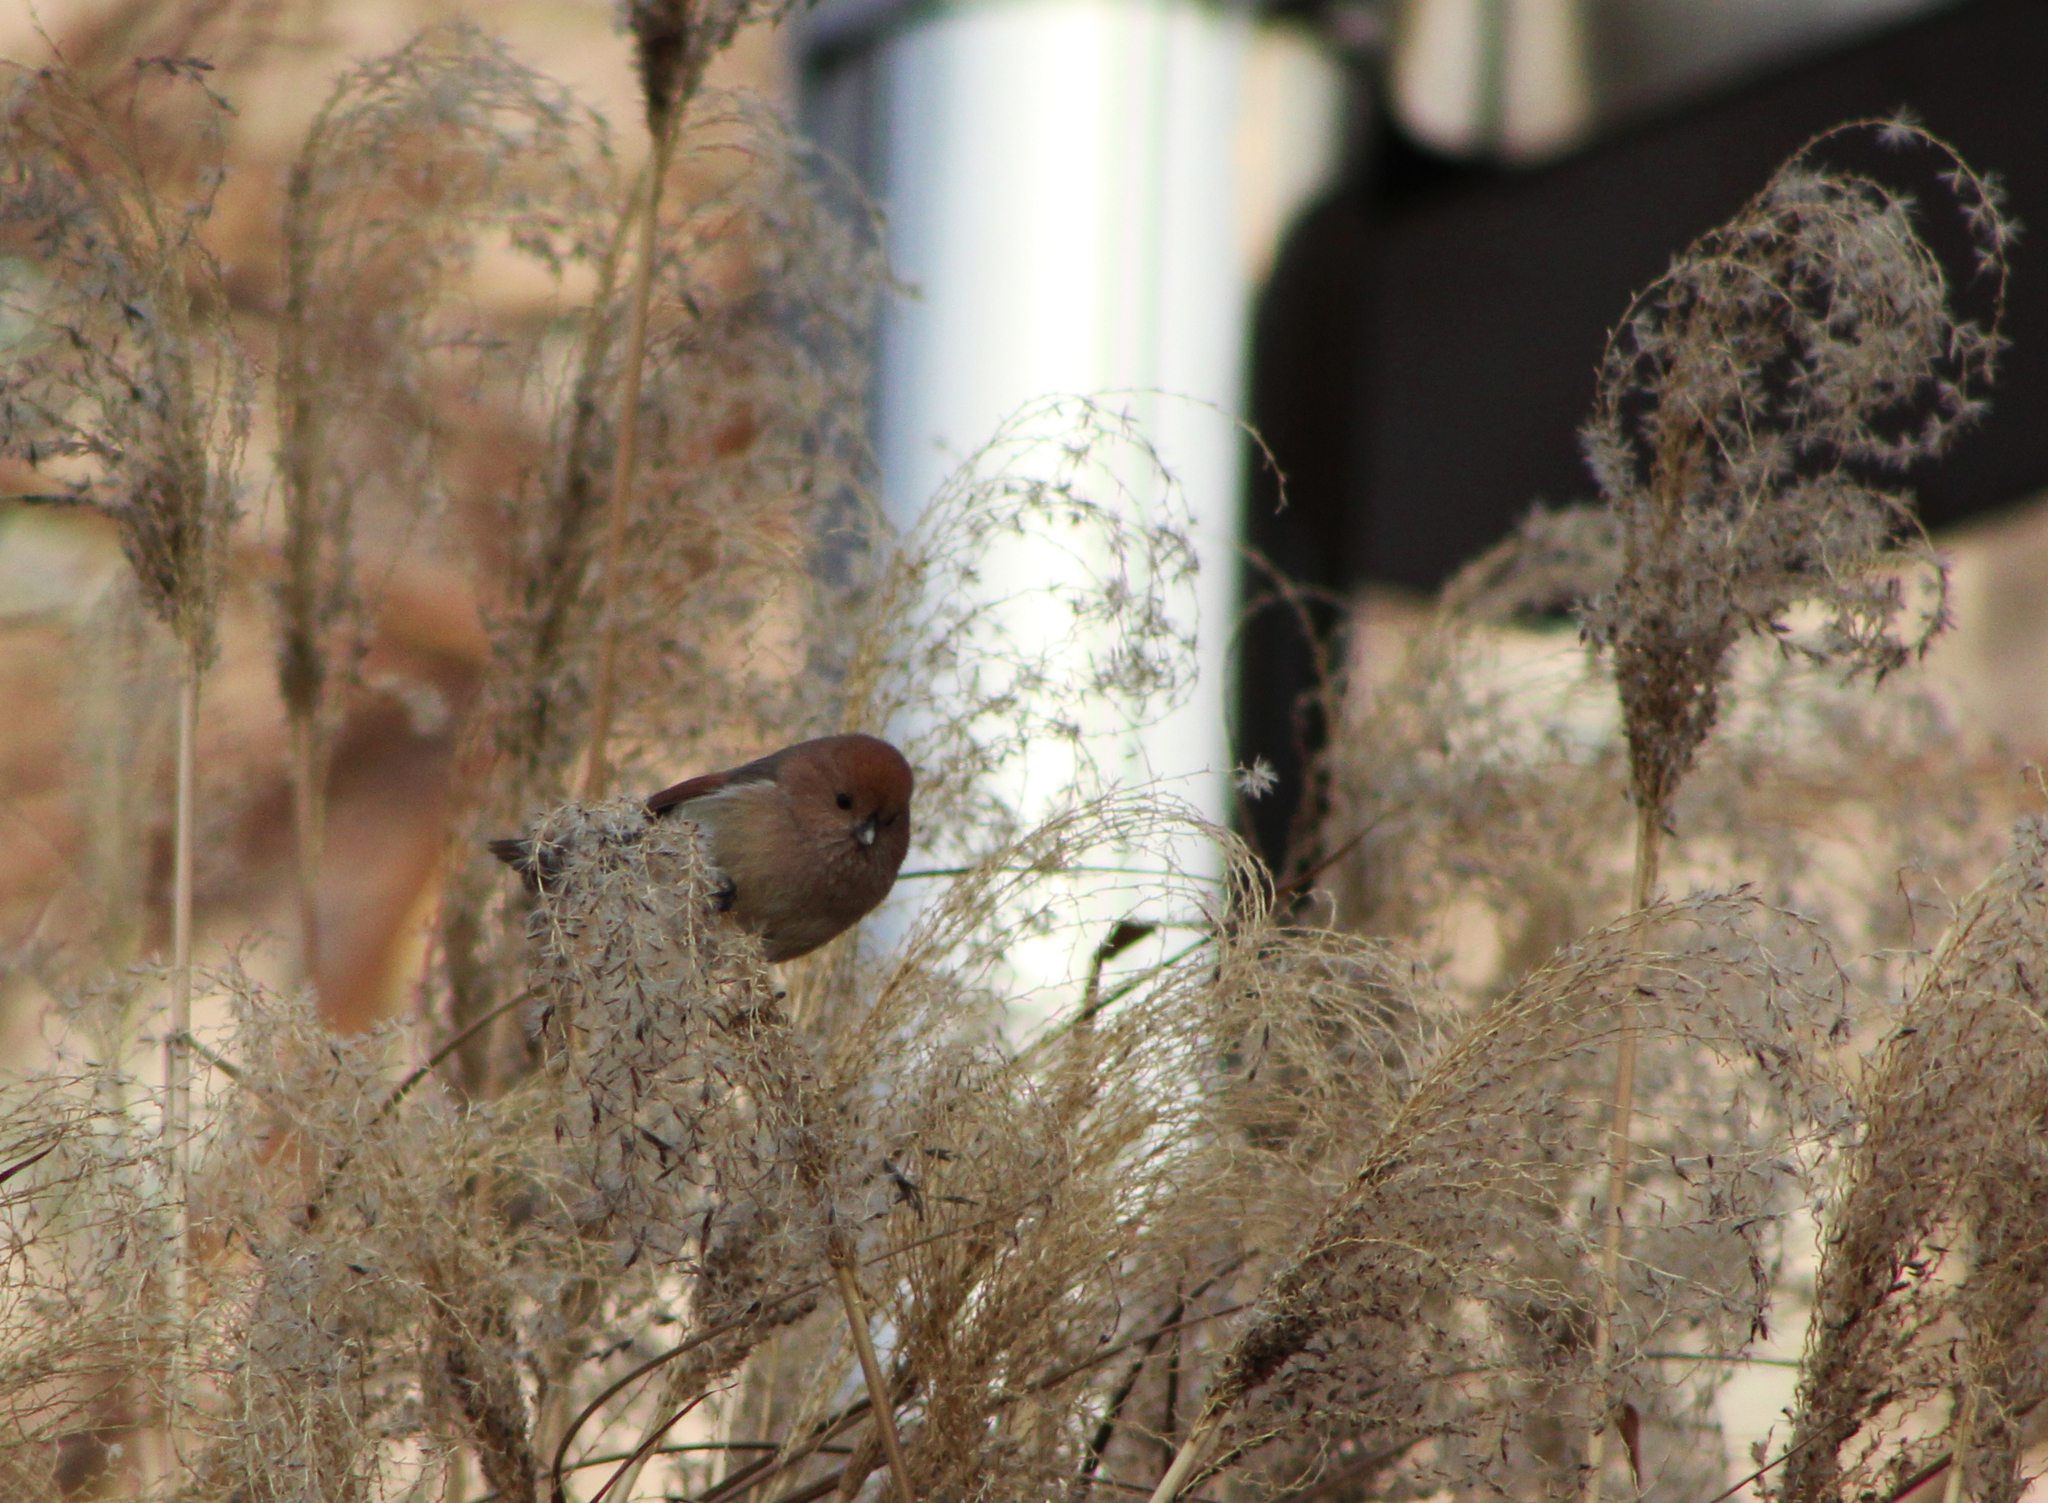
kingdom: Animalia
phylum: Chordata
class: Aves
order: Passeriformes
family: Sylviidae
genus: Sinosuthora
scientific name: Sinosuthora webbiana
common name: Vinous-throated parrotbill
